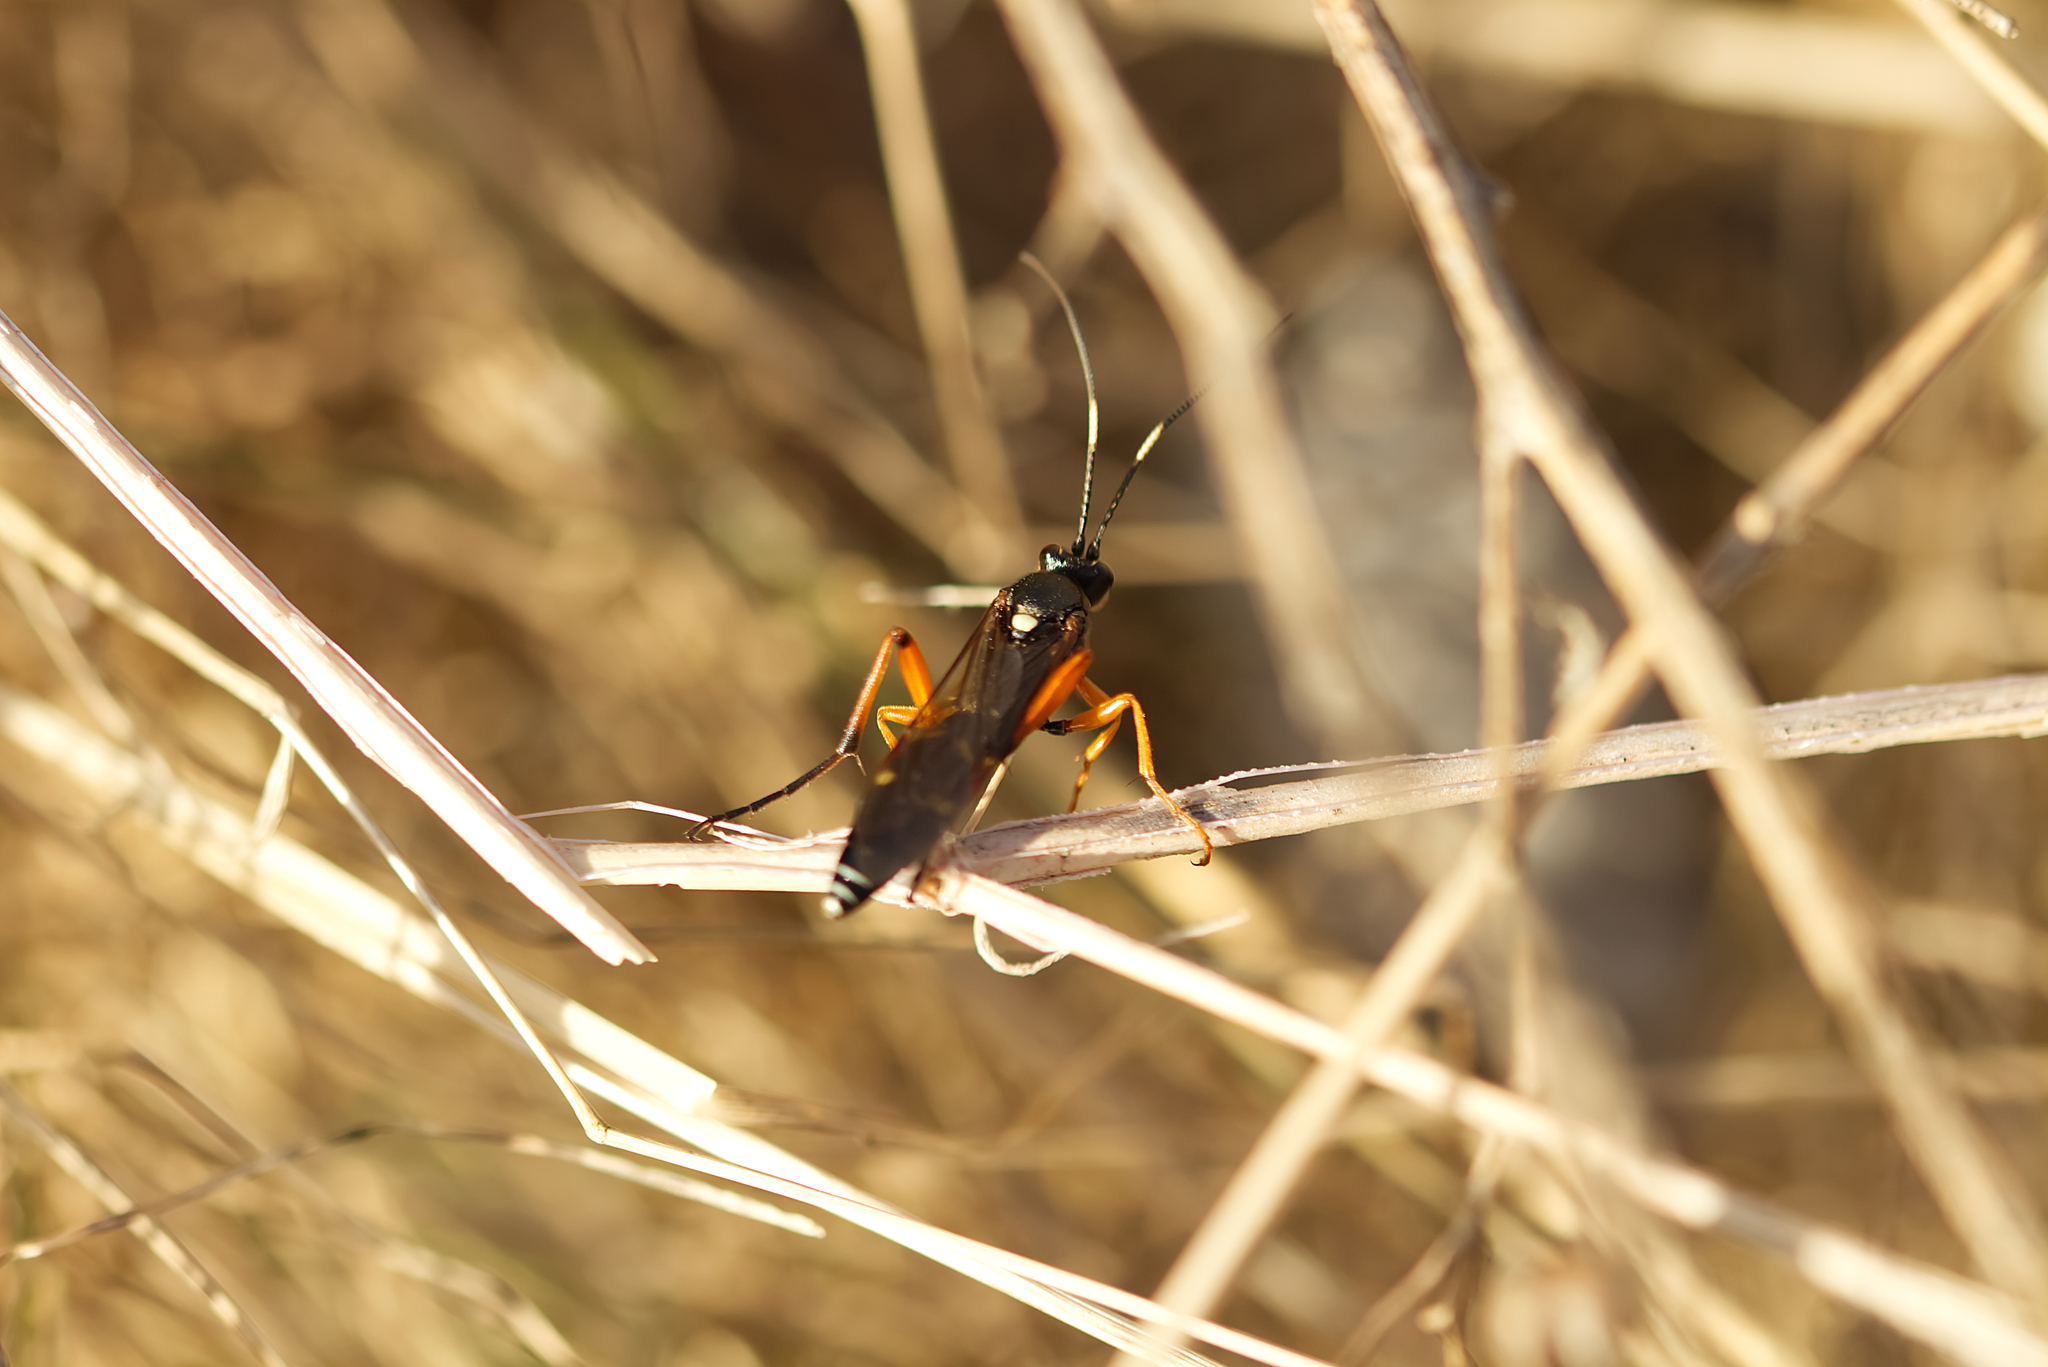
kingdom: Animalia
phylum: Arthropoda
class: Insecta
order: Hymenoptera
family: Ichneumonidae
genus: Diphyus
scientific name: Diphyus quadripunctorius
